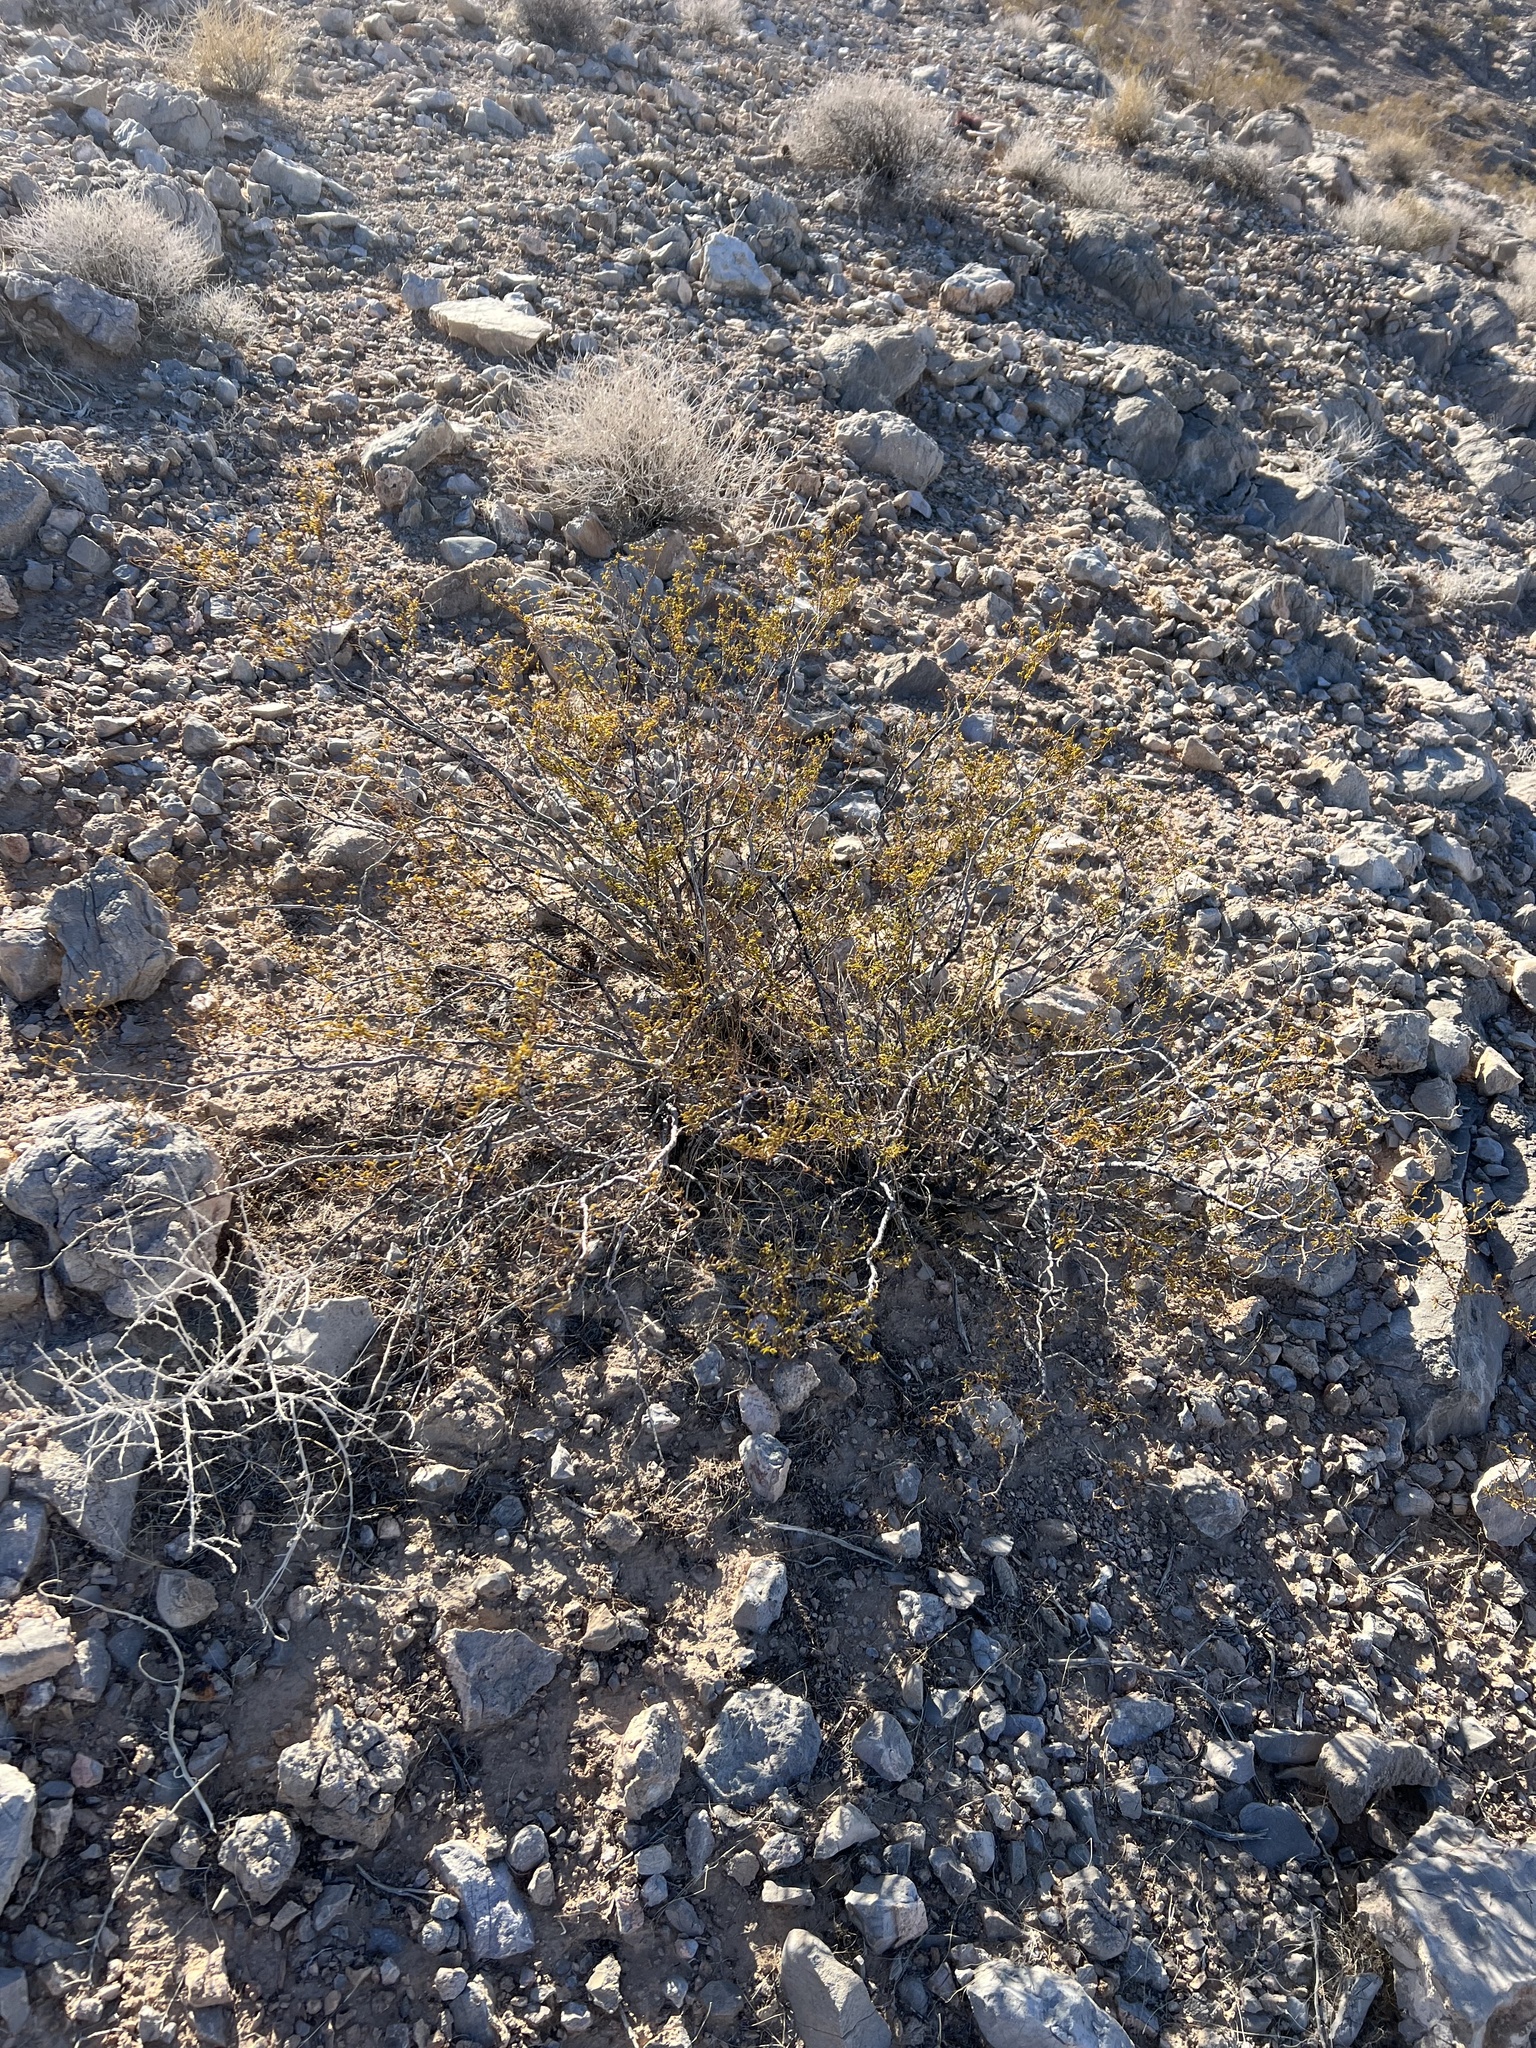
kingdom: Plantae
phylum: Tracheophyta
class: Magnoliopsida
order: Zygophyllales
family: Zygophyllaceae
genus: Larrea
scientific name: Larrea tridentata
